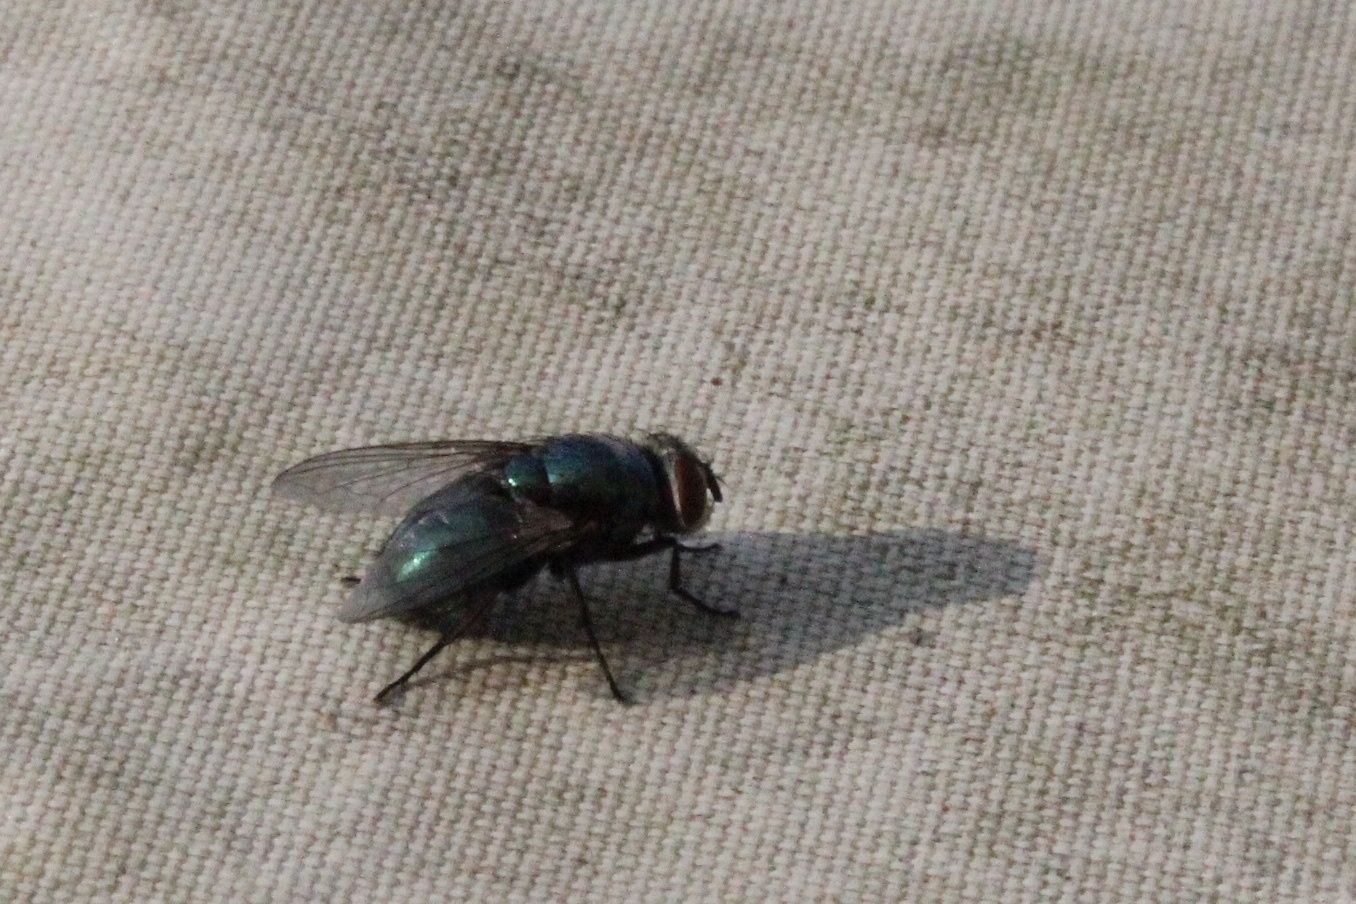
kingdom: Animalia
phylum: Arthropoda
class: Insecta
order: Diptera
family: Calliphoridae
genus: Lucilia
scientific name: Lucilia sericata
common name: Blow fly
